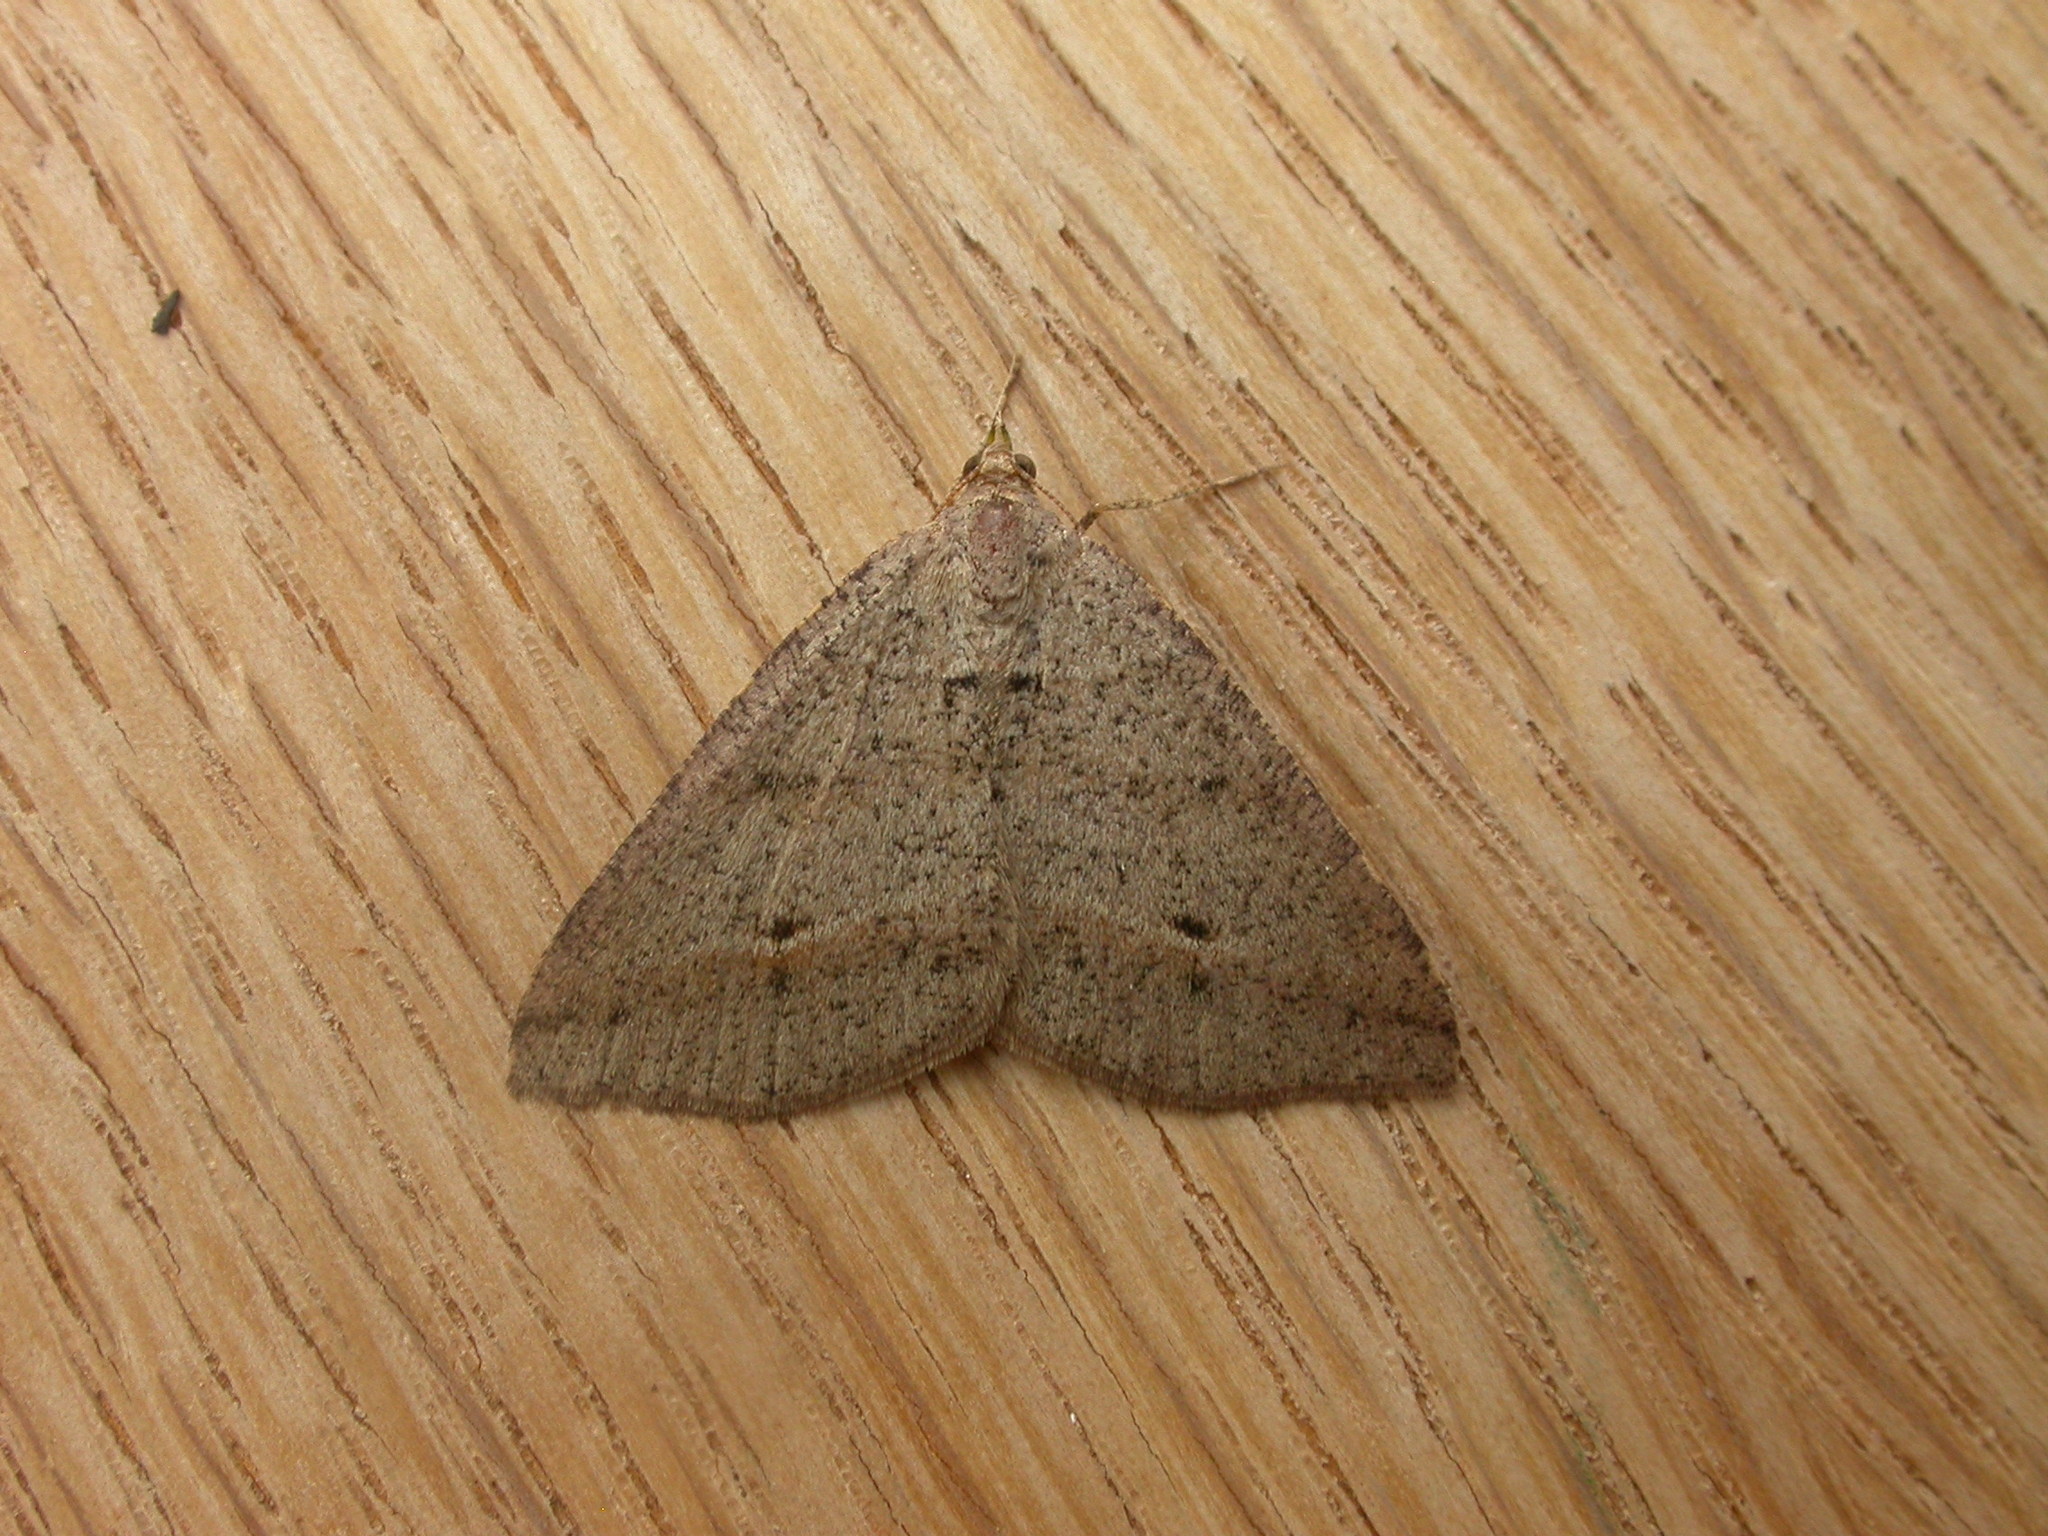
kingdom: Animalia
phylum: Arthropoda
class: Insecta
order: Lepidoptera
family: Geometridae
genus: Parosteodes
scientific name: Parosteodes fictiliaria
